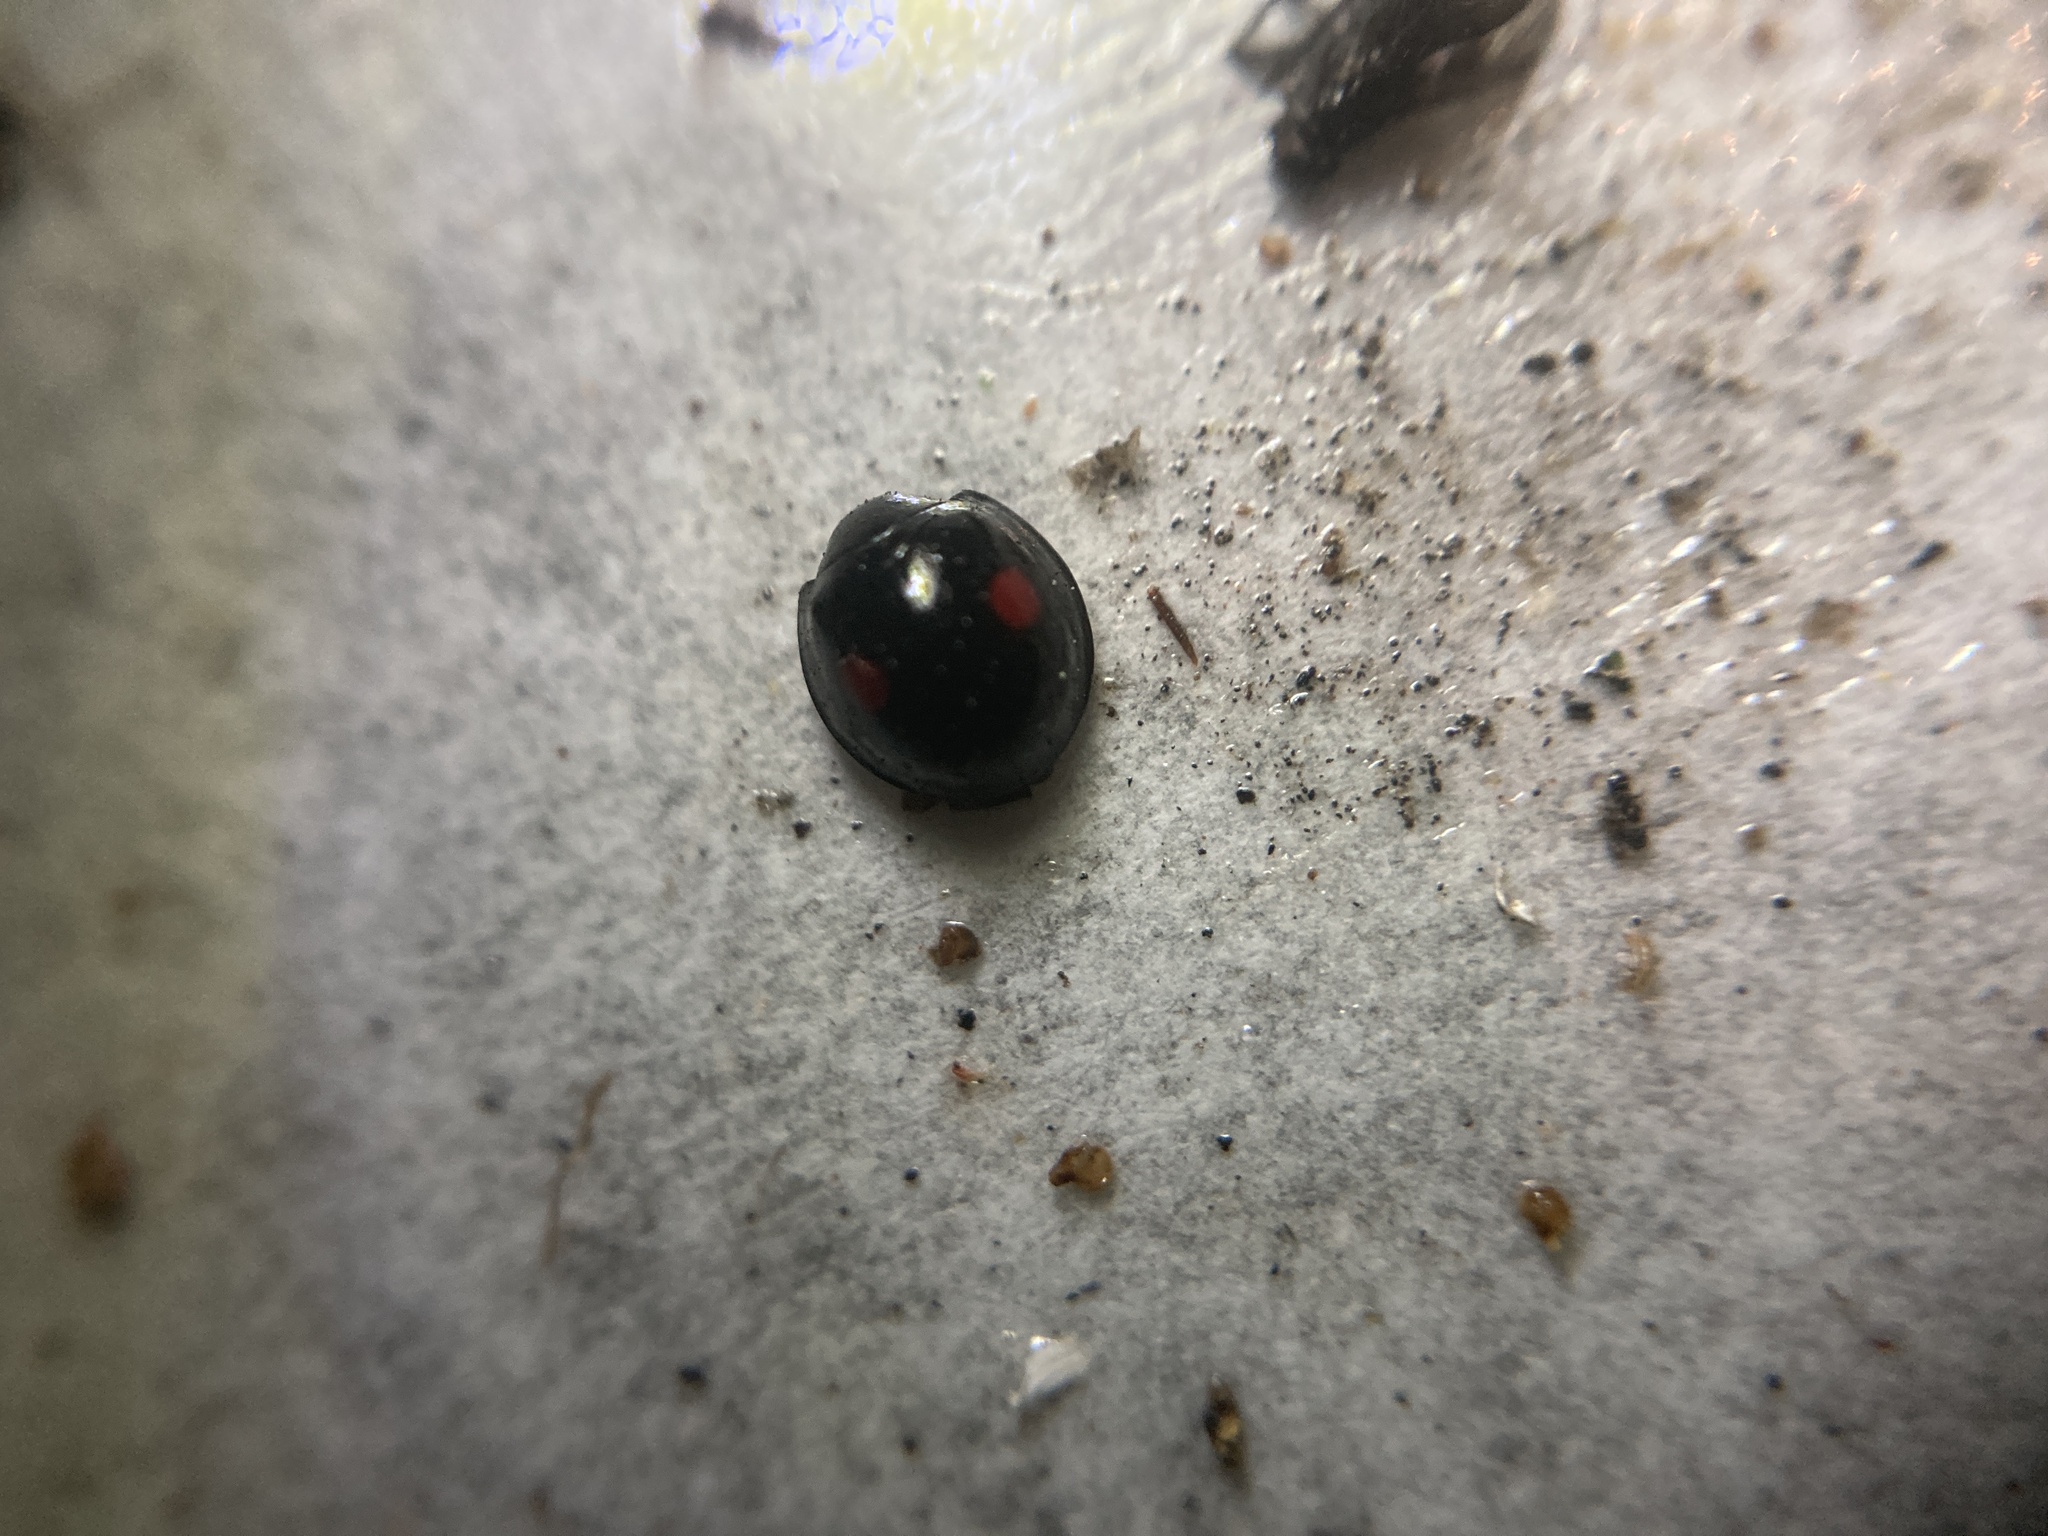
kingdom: Animalia
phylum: Arthropoda
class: Insecta
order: Coleoptera
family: Coccinellidae
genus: Chilocorus
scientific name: Chilocorus stigma
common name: Twicestabbed lady beetle
